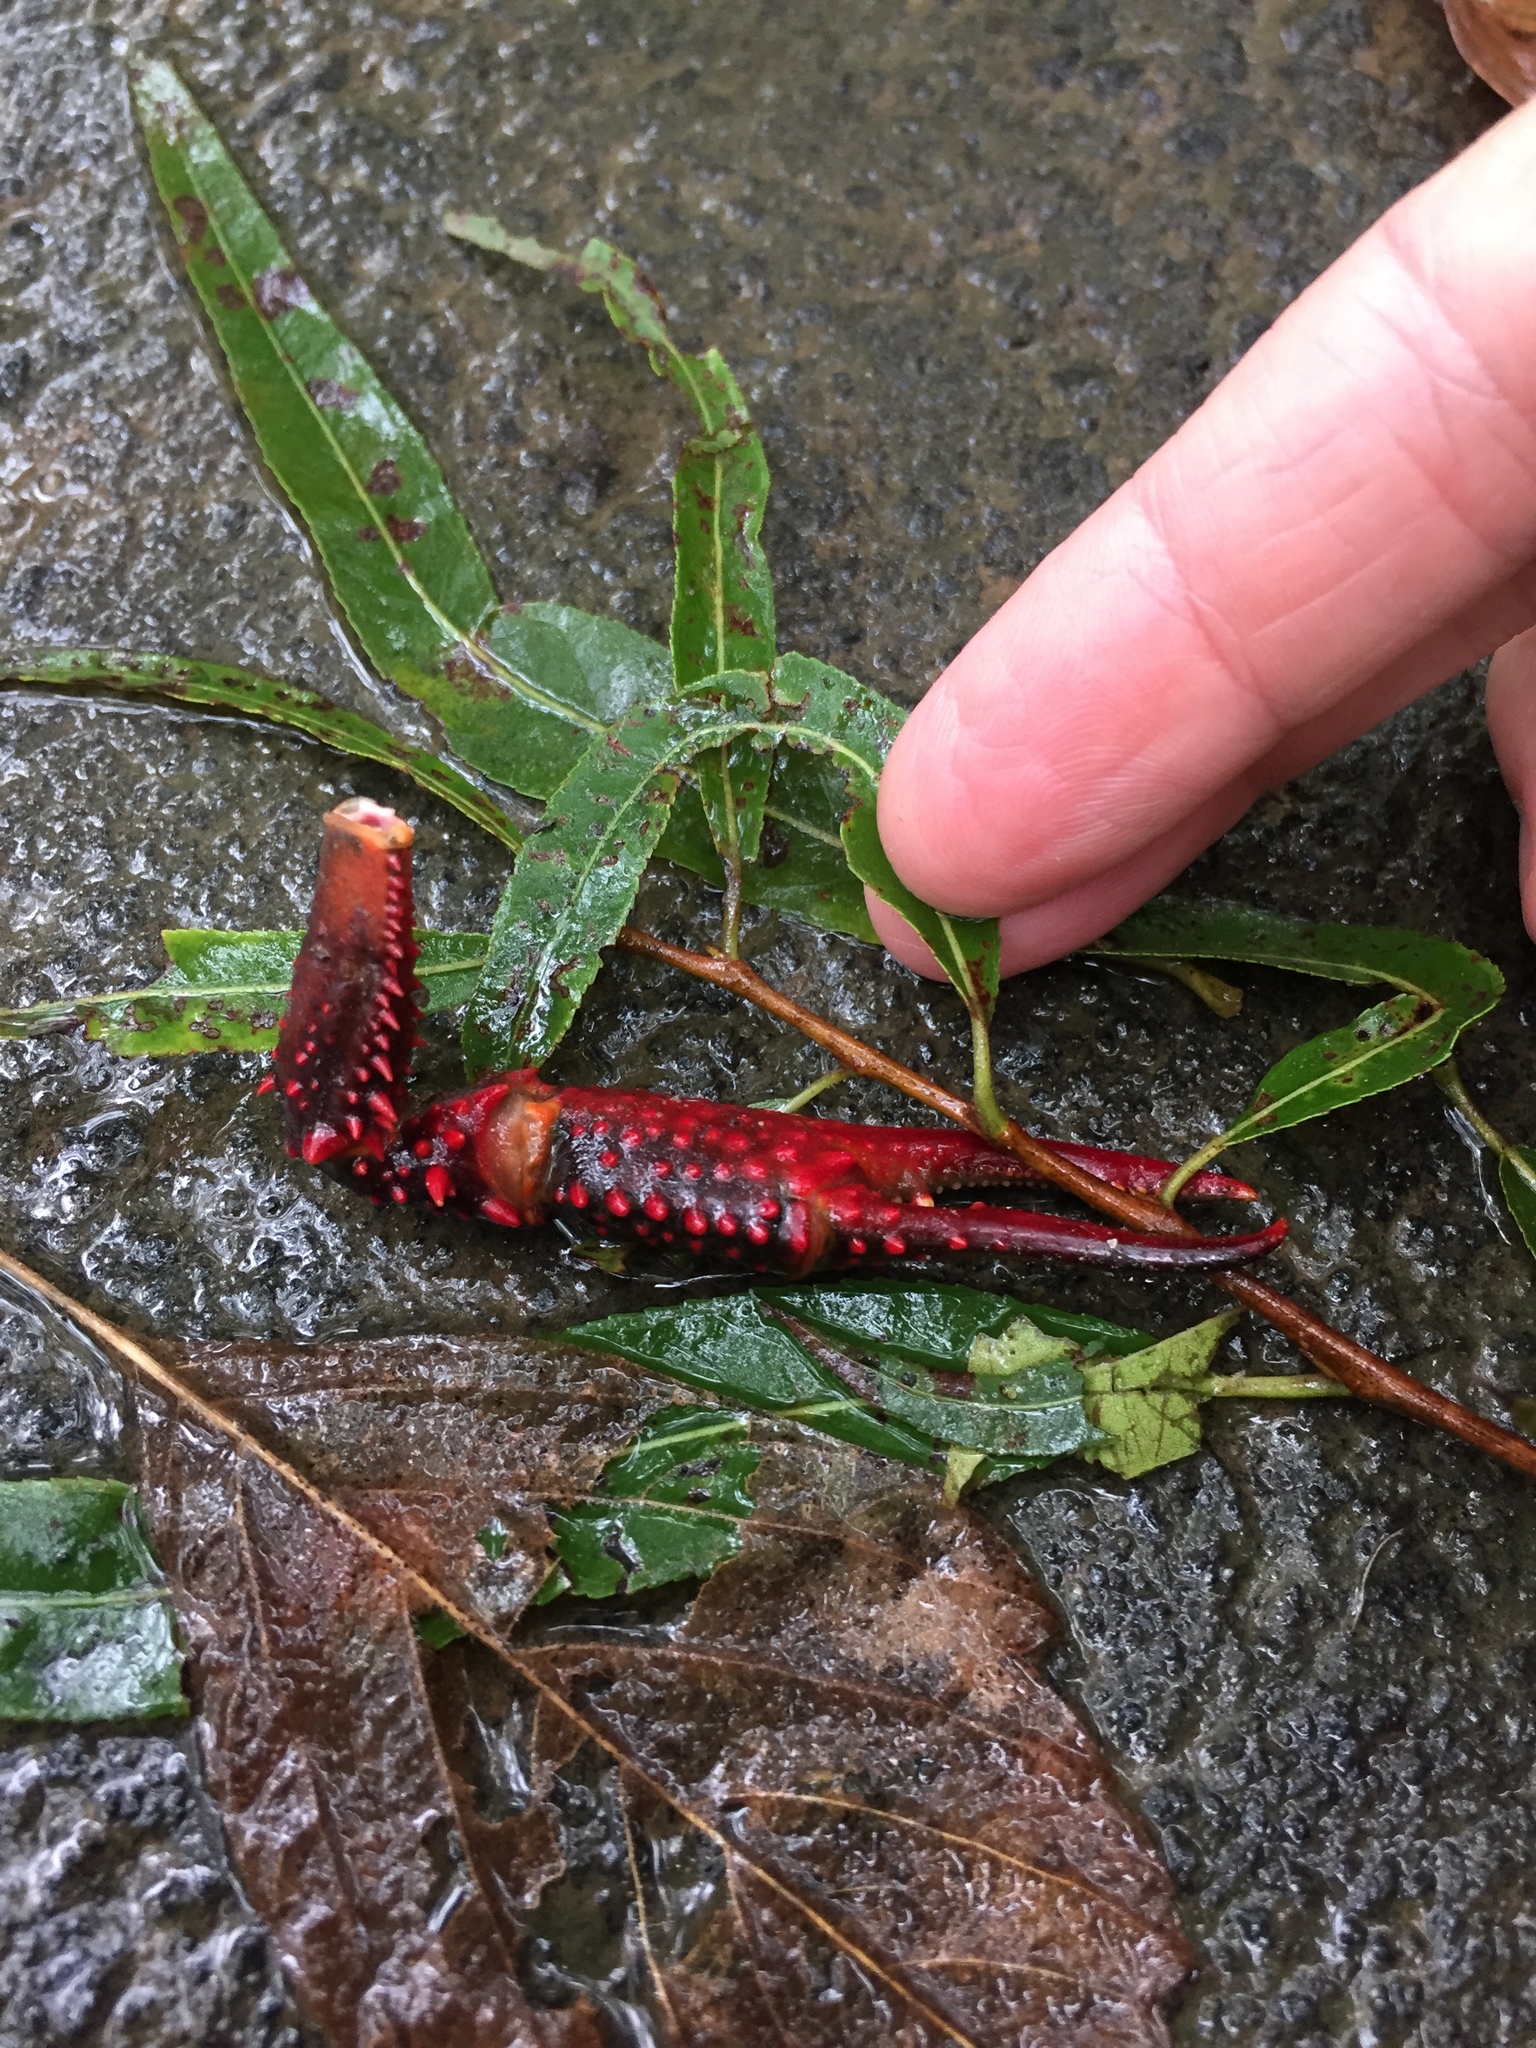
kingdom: Animalia
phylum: Arthropoda
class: Malacostraca
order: Decapoda
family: Cambaridae
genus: Procambarus
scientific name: Procambarus clarkii
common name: Red swamp crayfish
